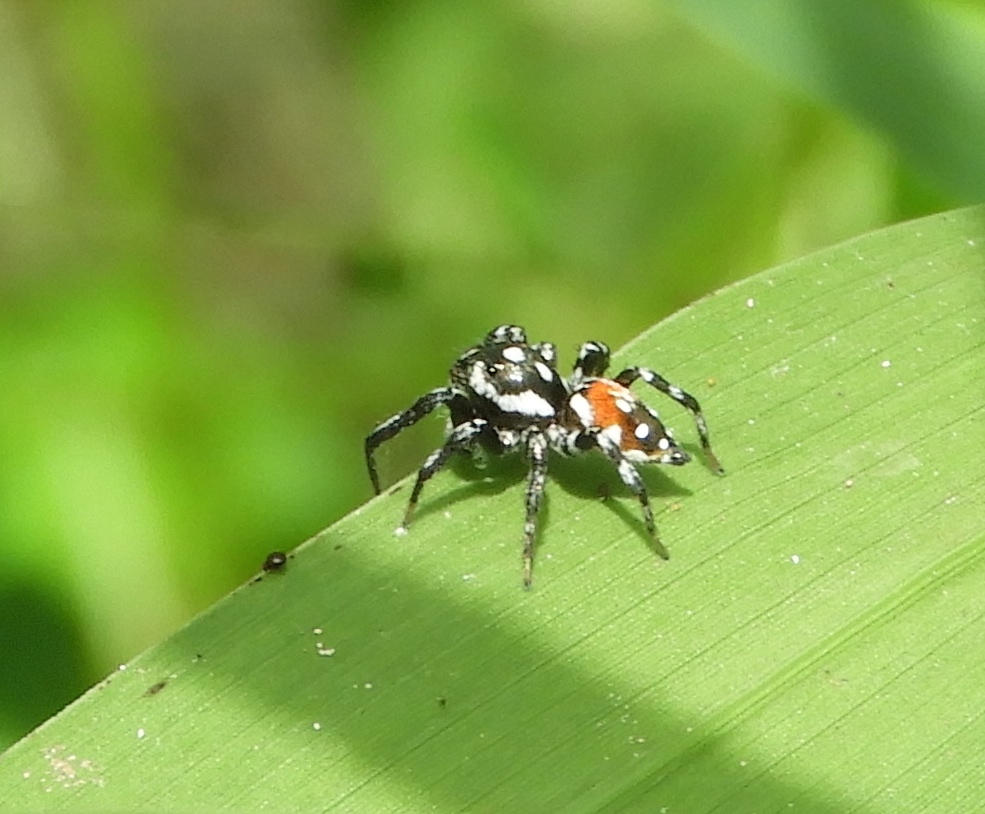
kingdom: Animalia
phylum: Arthropoda
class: Arachnida
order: Araneae
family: Salticidae
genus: Nycerella
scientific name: Nycerella
